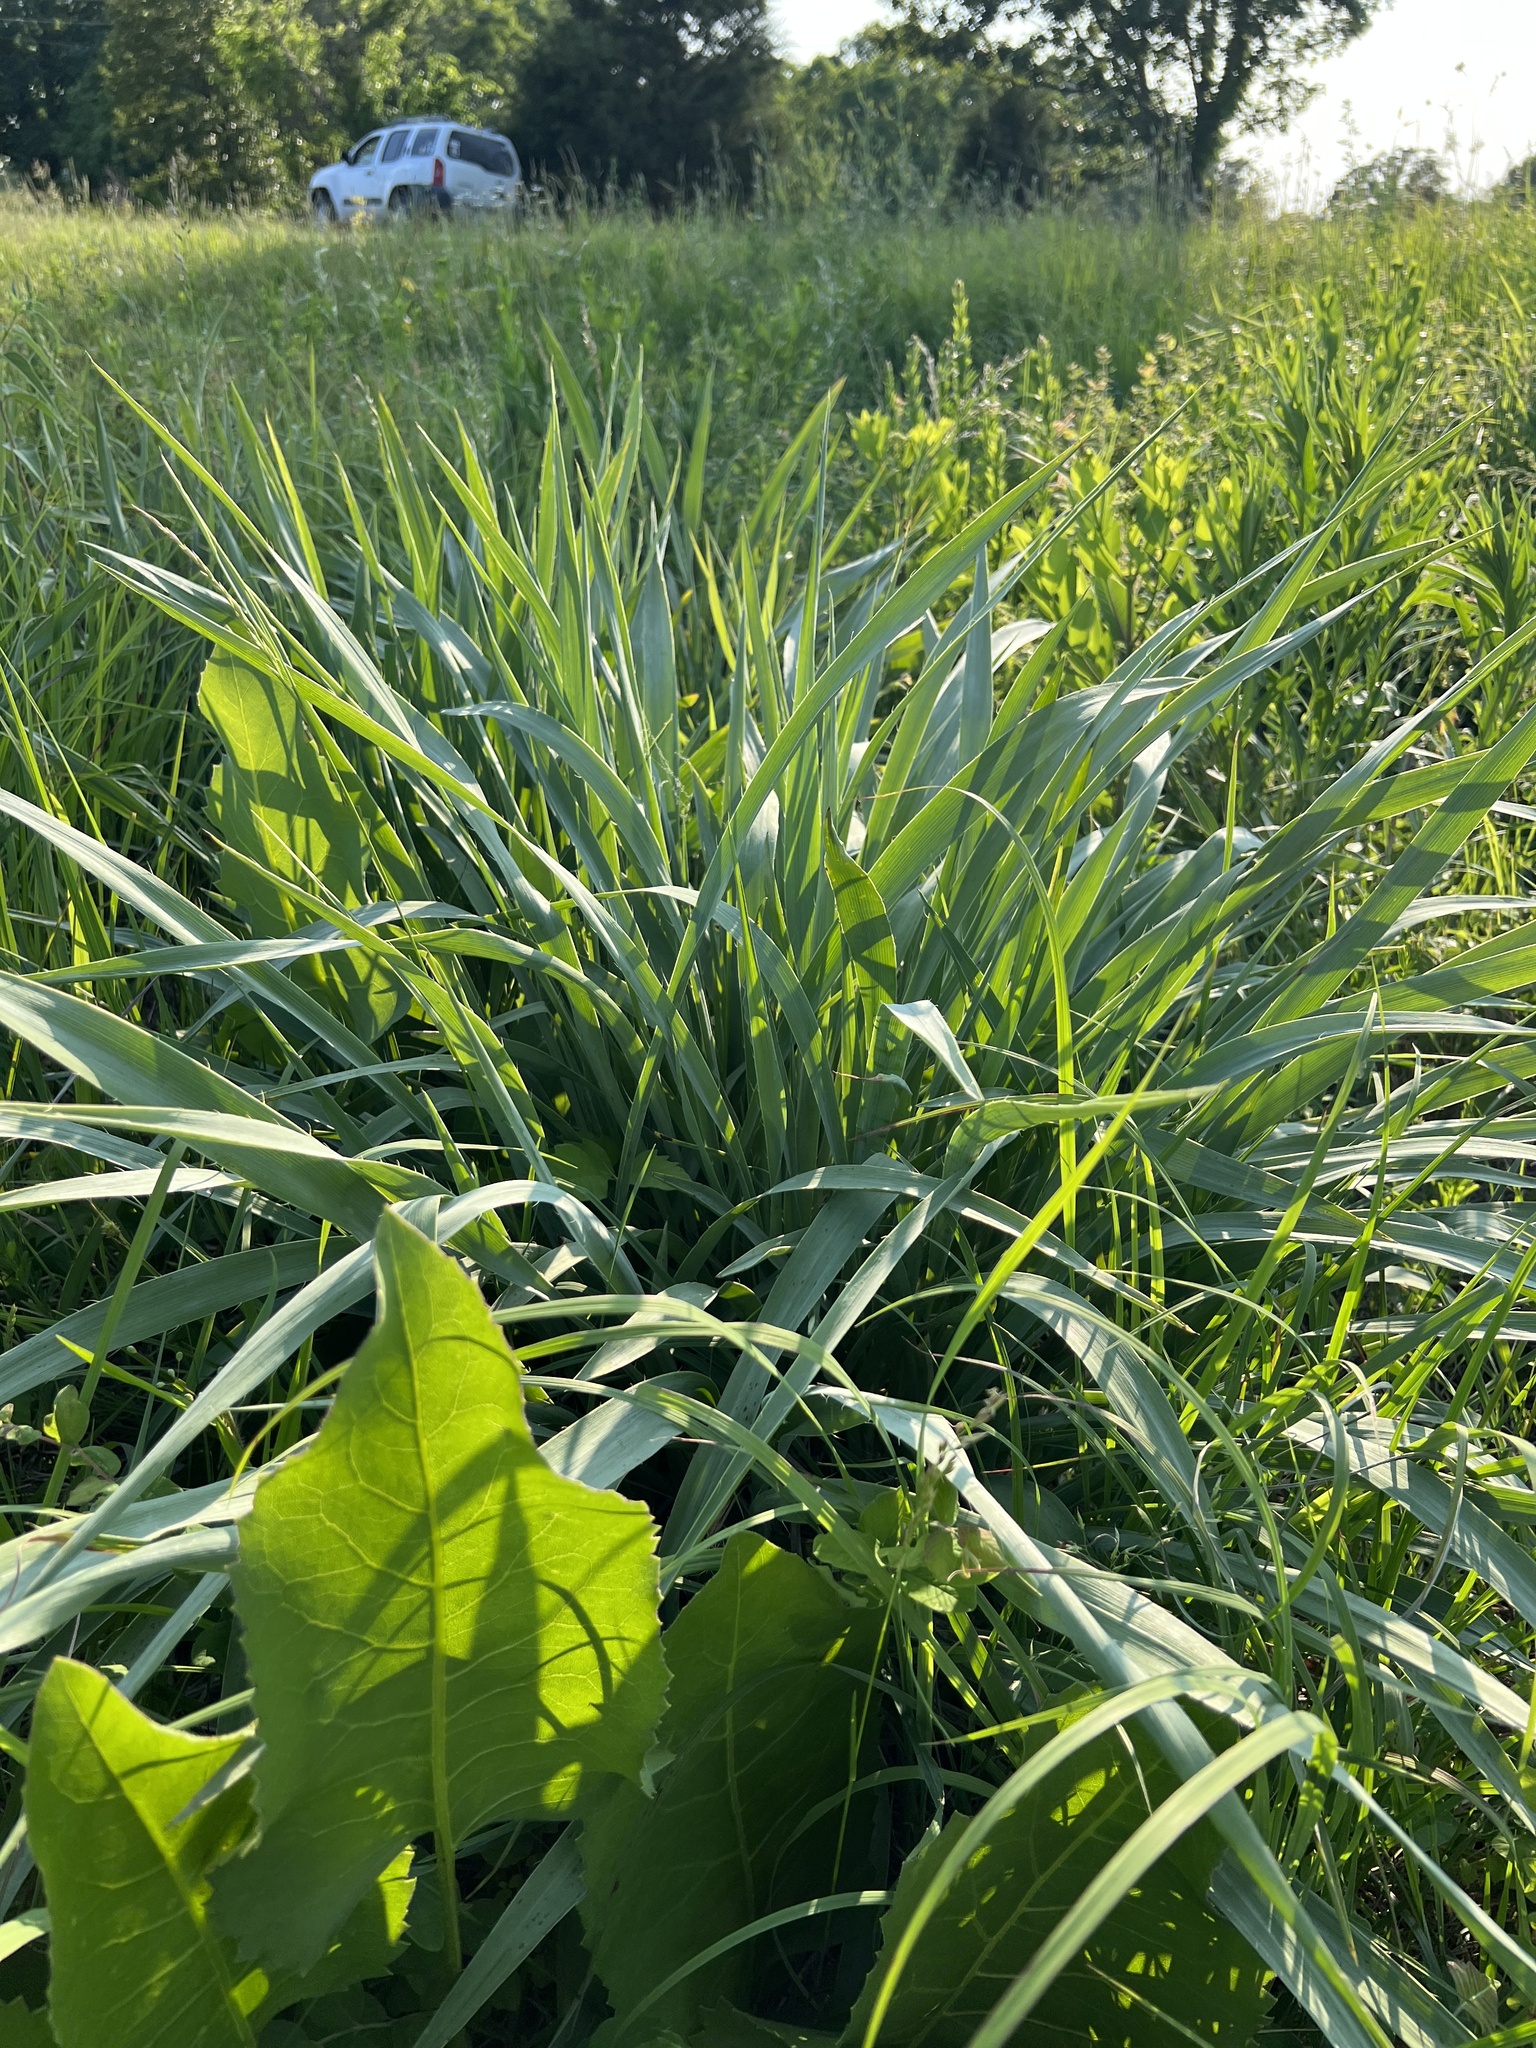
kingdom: Plantae
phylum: Tracheophyta
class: Magnoliopsida
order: Apiales
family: Apiaceae
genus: Eryngium
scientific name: Eryngium yuccifolium
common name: Button eryngo
